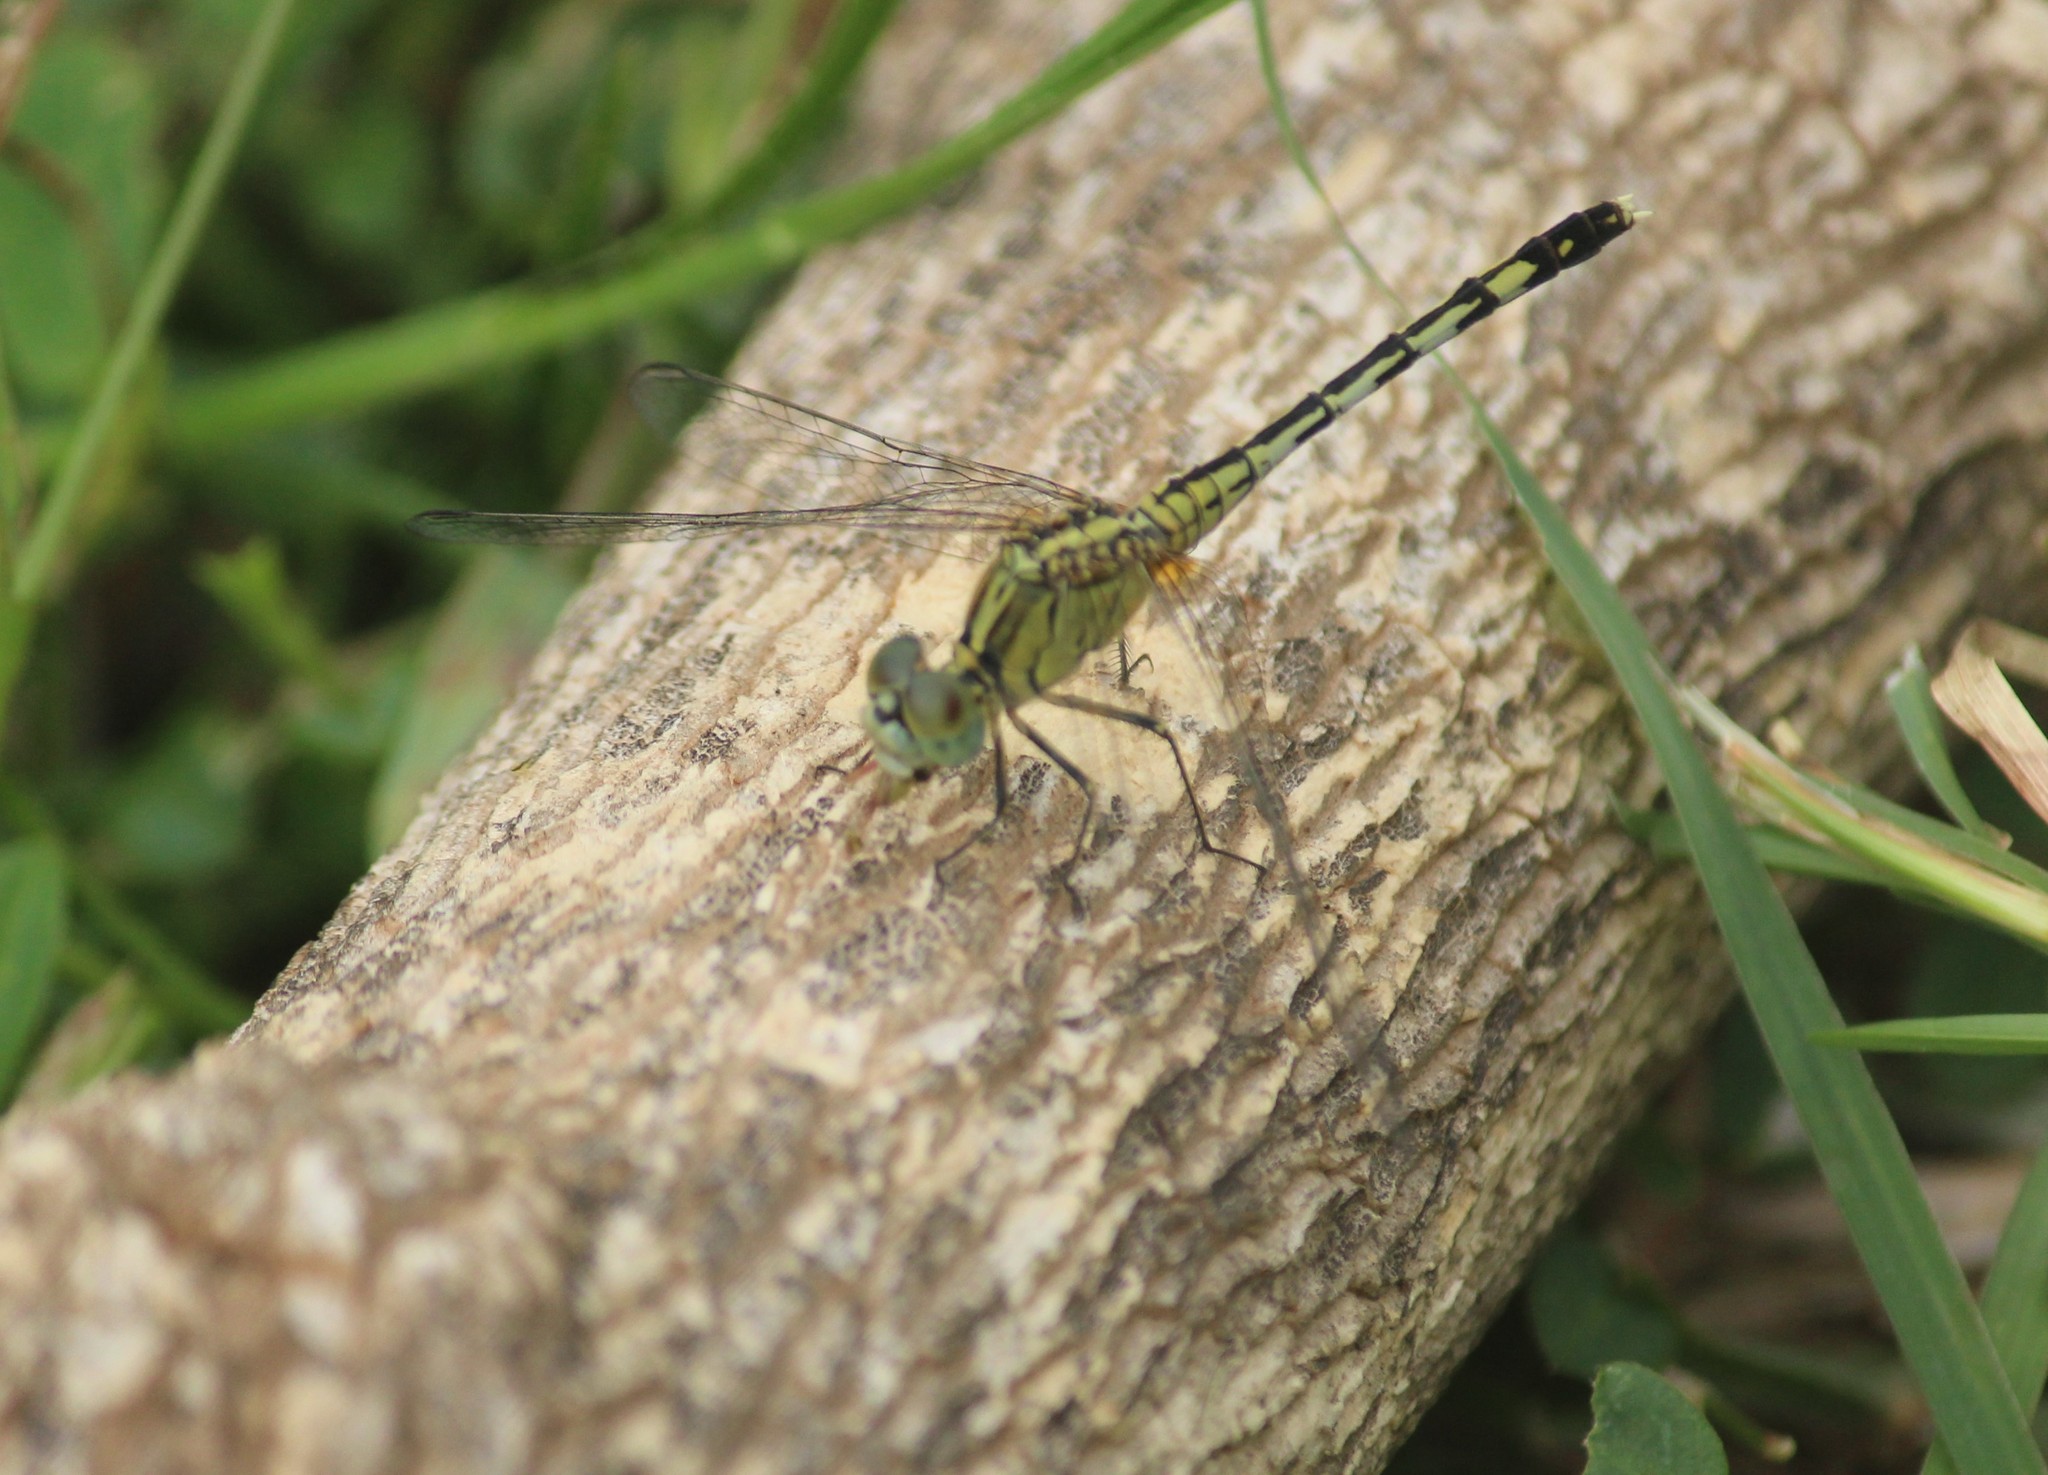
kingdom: Animalia
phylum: Arthropoda
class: Insecta
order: Odonata
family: Libellulidae
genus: Diplacodes
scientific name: Diplacodes trivialis
